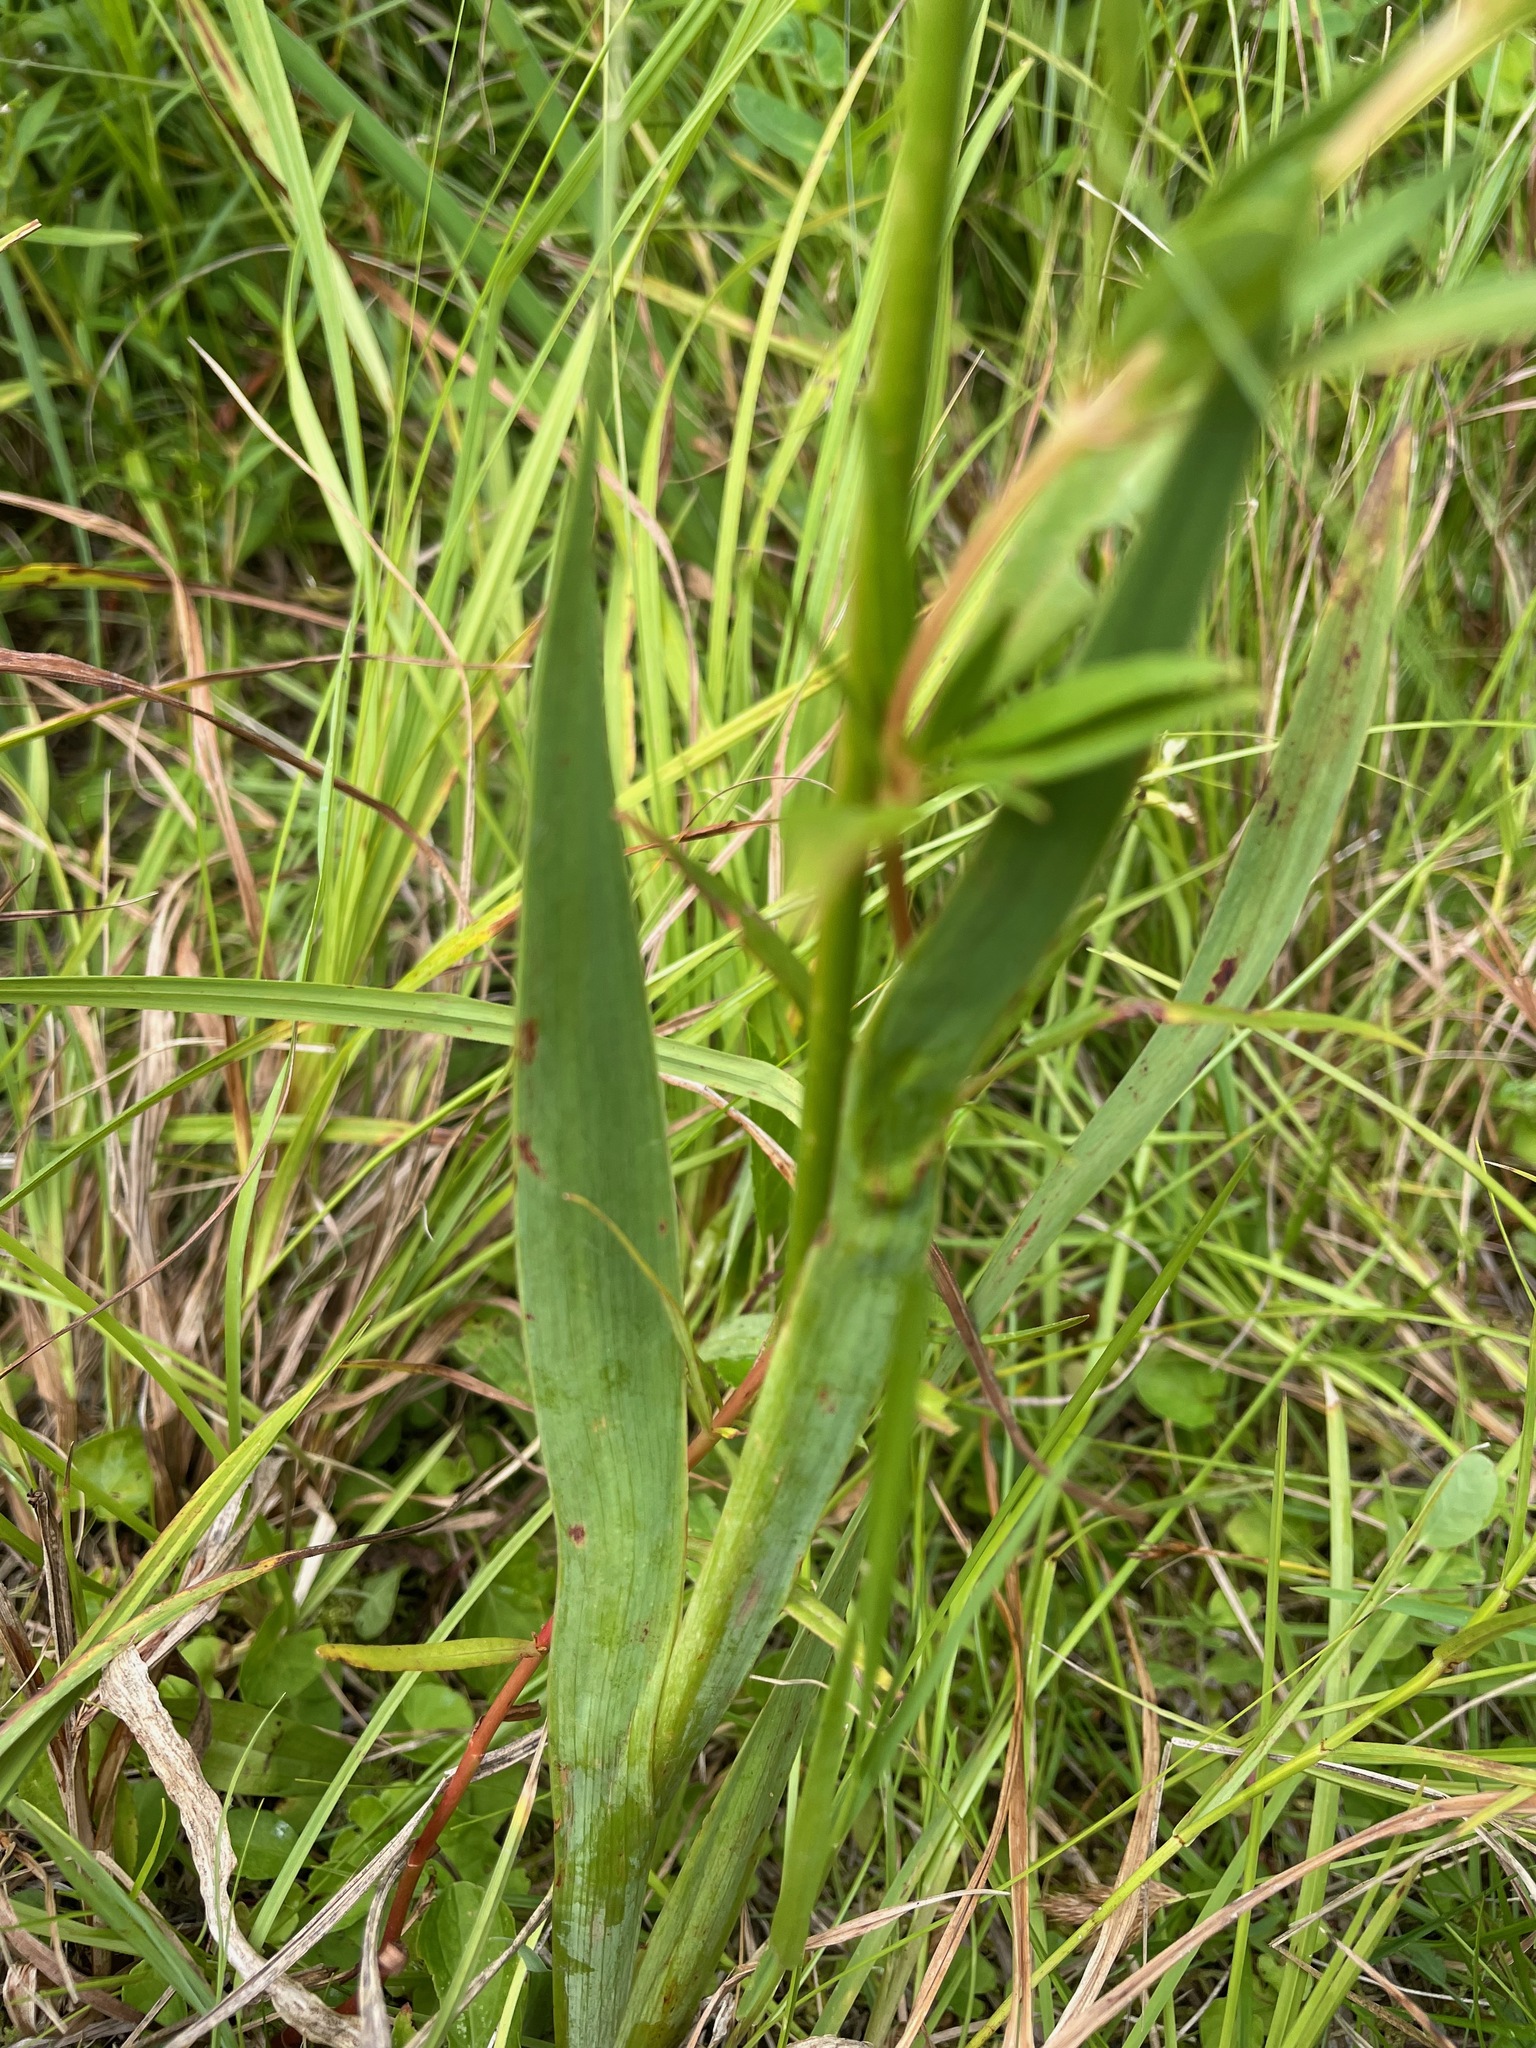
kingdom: Plantae
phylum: Tracheophyta
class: Liliopsida
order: Asparagales
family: Iridaceae
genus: Iris
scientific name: Iris versicolor
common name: Purple iris
